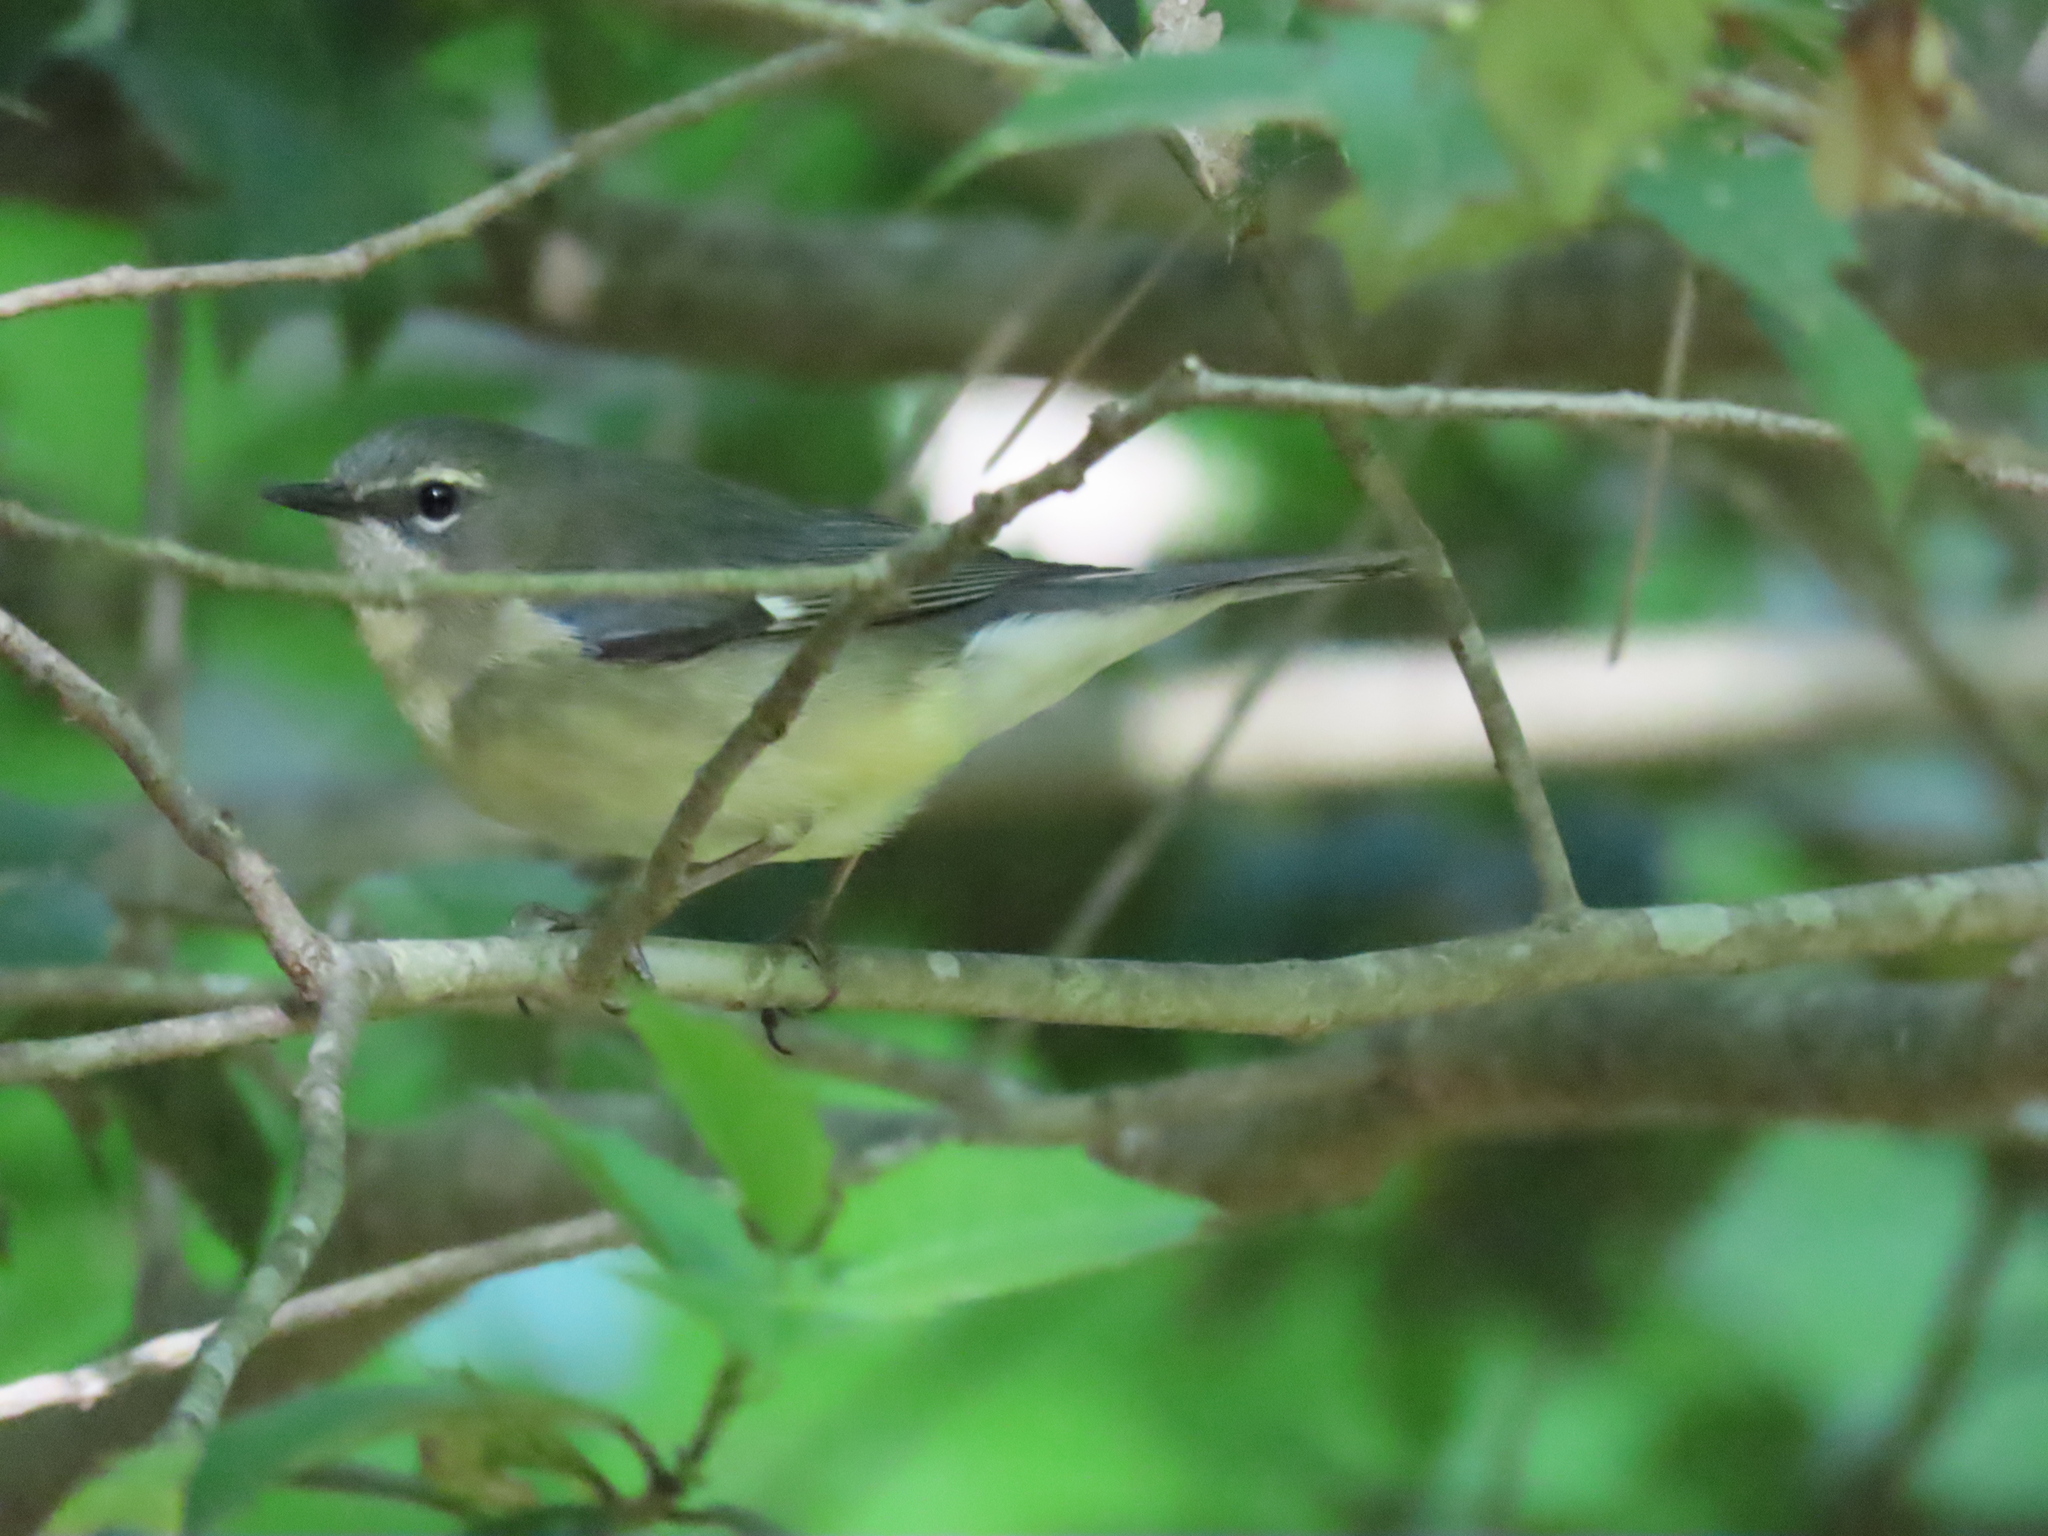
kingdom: Animalia
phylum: Chordata
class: Aves
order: Passeriformes
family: Parulidae
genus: Setophaga
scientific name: Setophaga caerulescens
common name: Black-throated blue warbler
